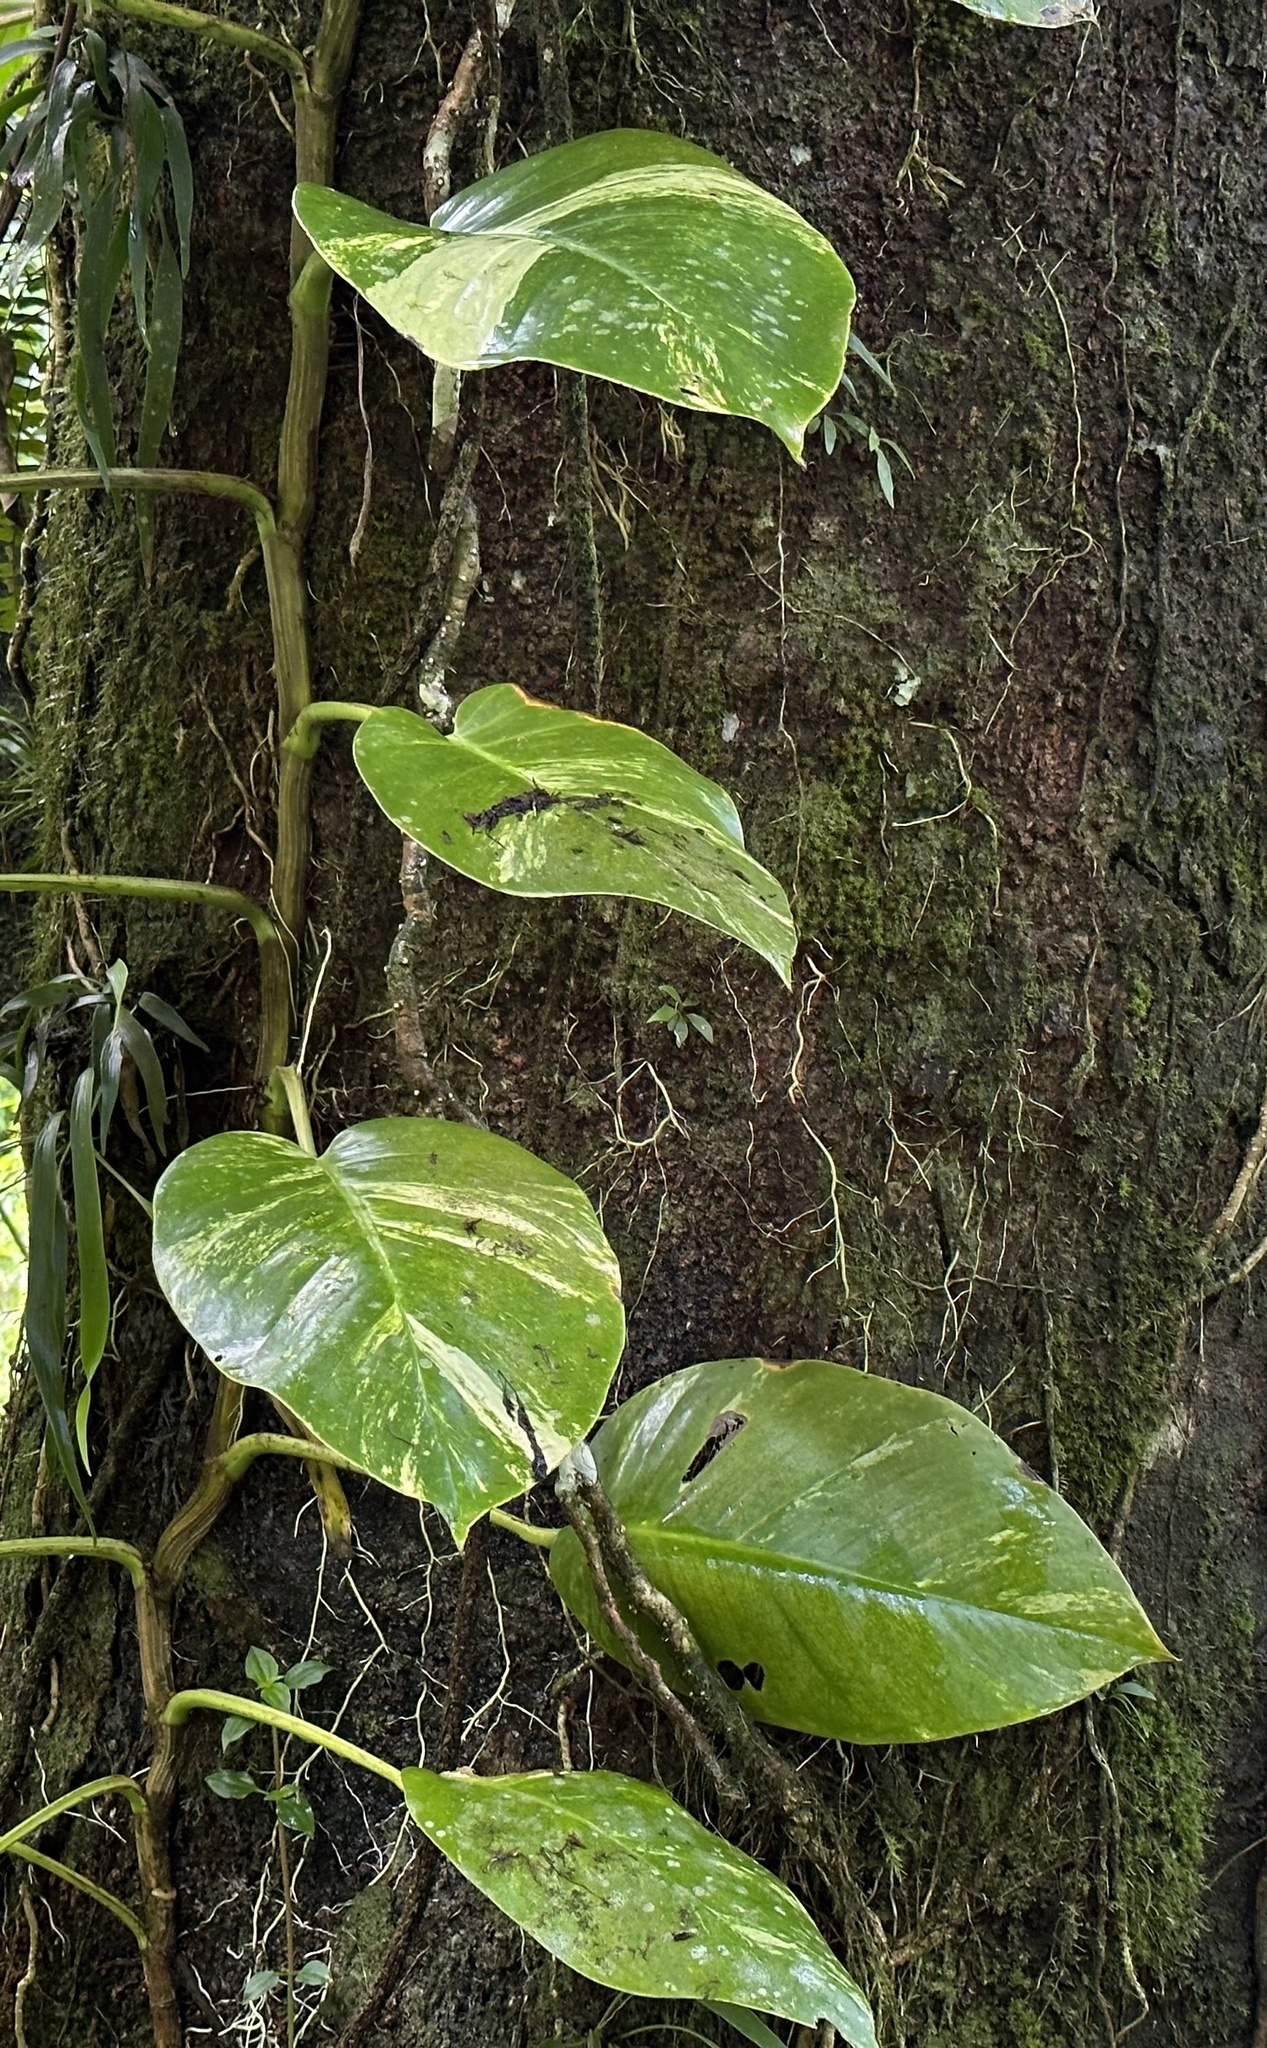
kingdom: Plantae
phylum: Tracheophyta
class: Liliopsida
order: Alismatales
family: Araceae
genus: Epipremnum
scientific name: Epipremnum aureum
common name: Golden hunter's-robe
